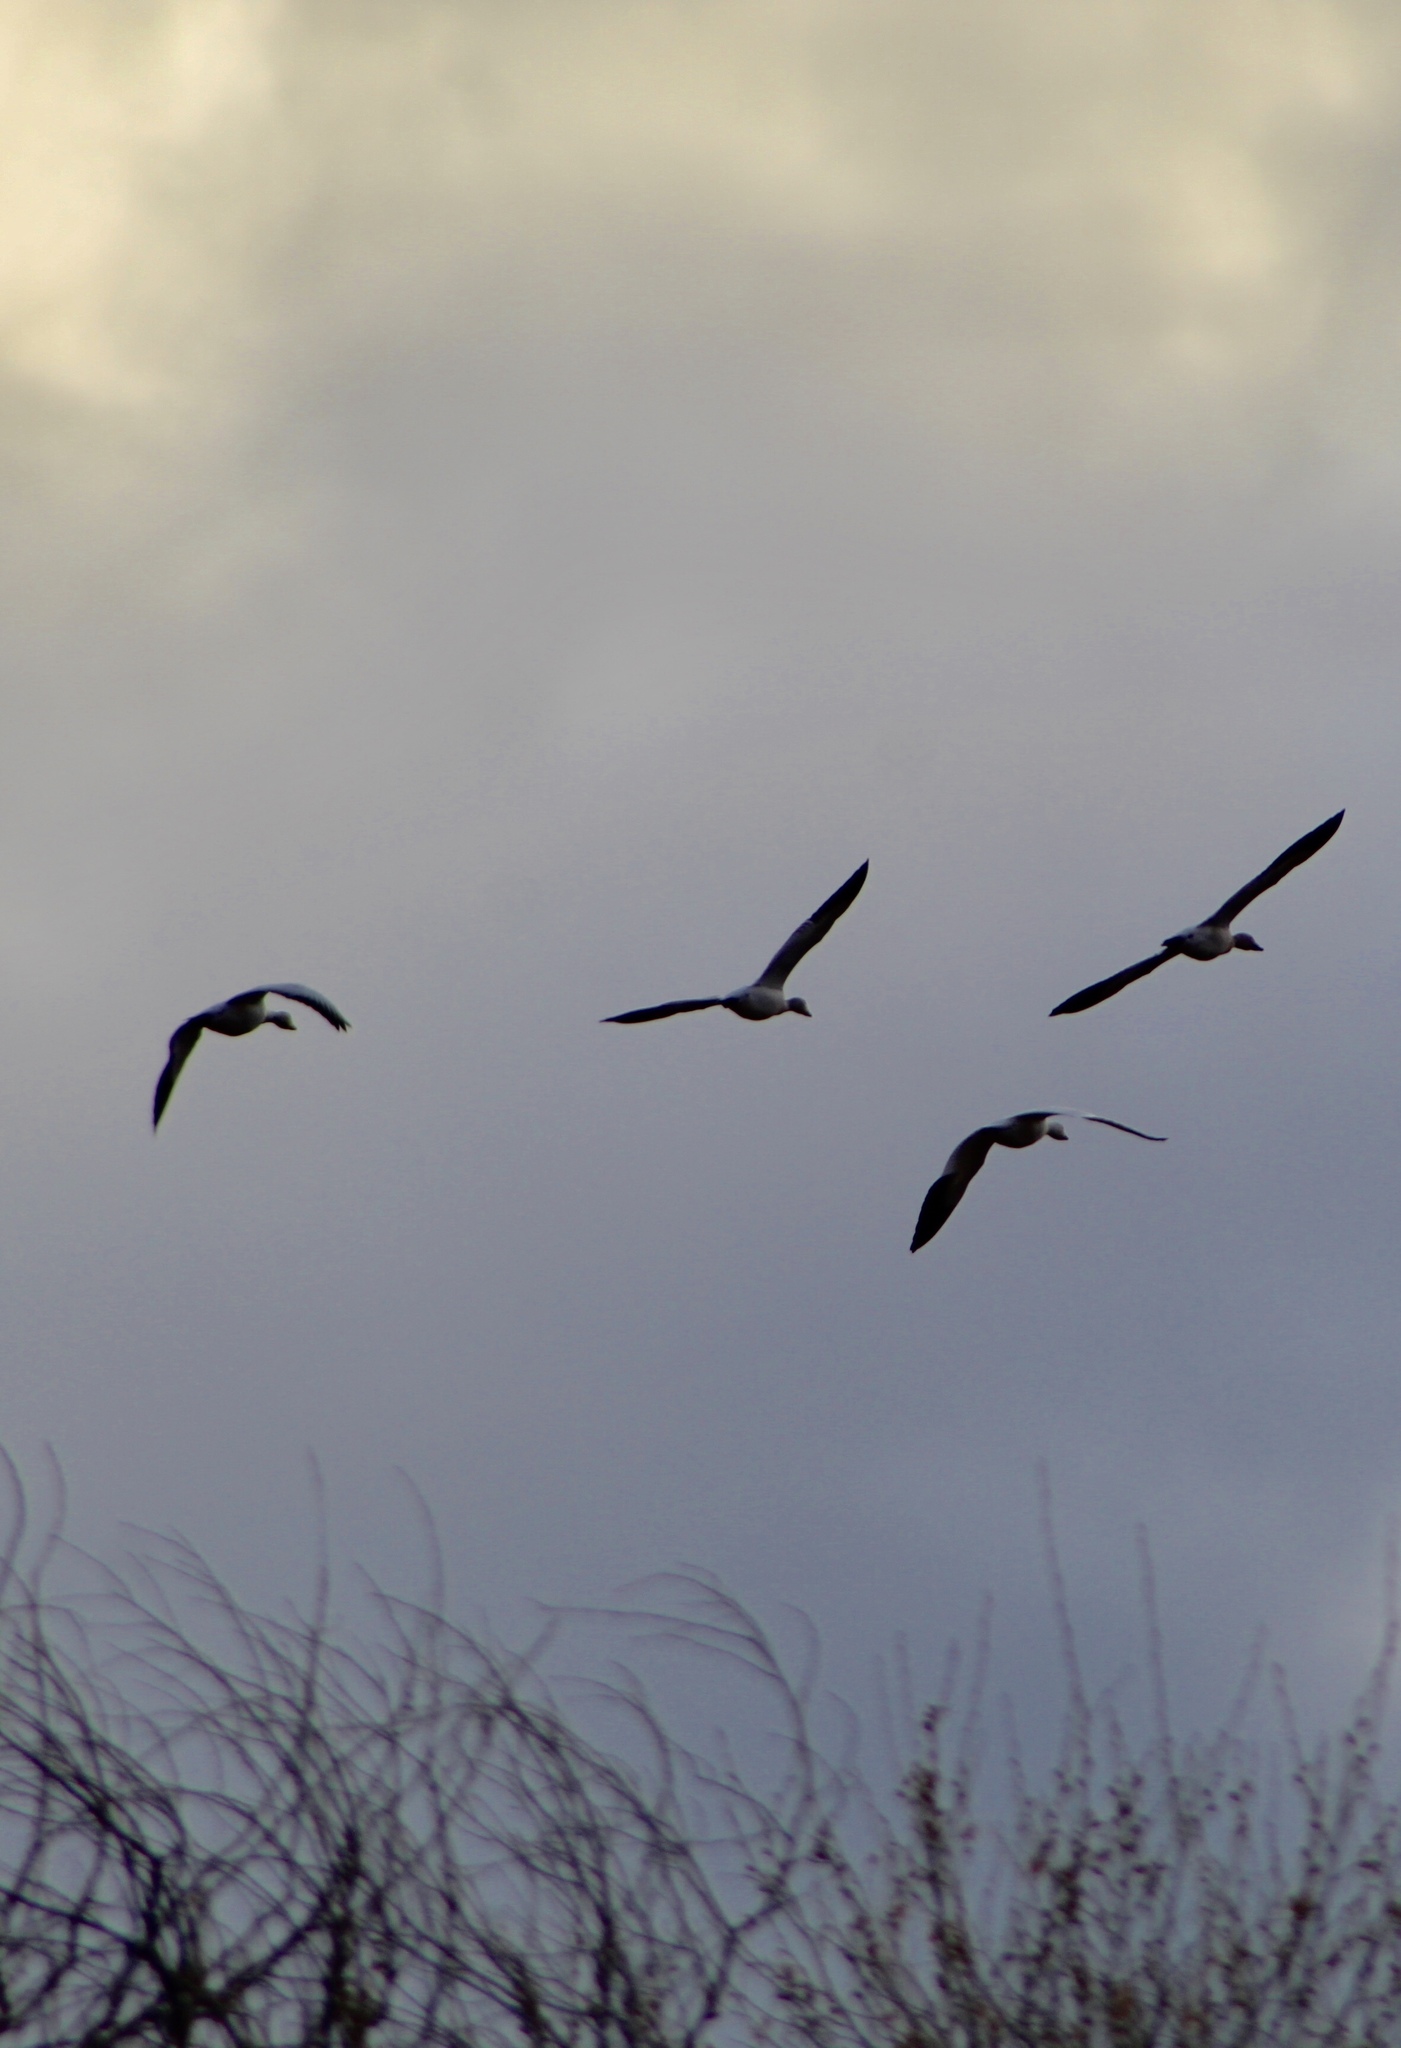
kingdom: Animalia
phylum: Chordata
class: Aves
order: Anseriformes
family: Anatidae
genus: Anser
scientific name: Anser caerulescens
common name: Snow goose
